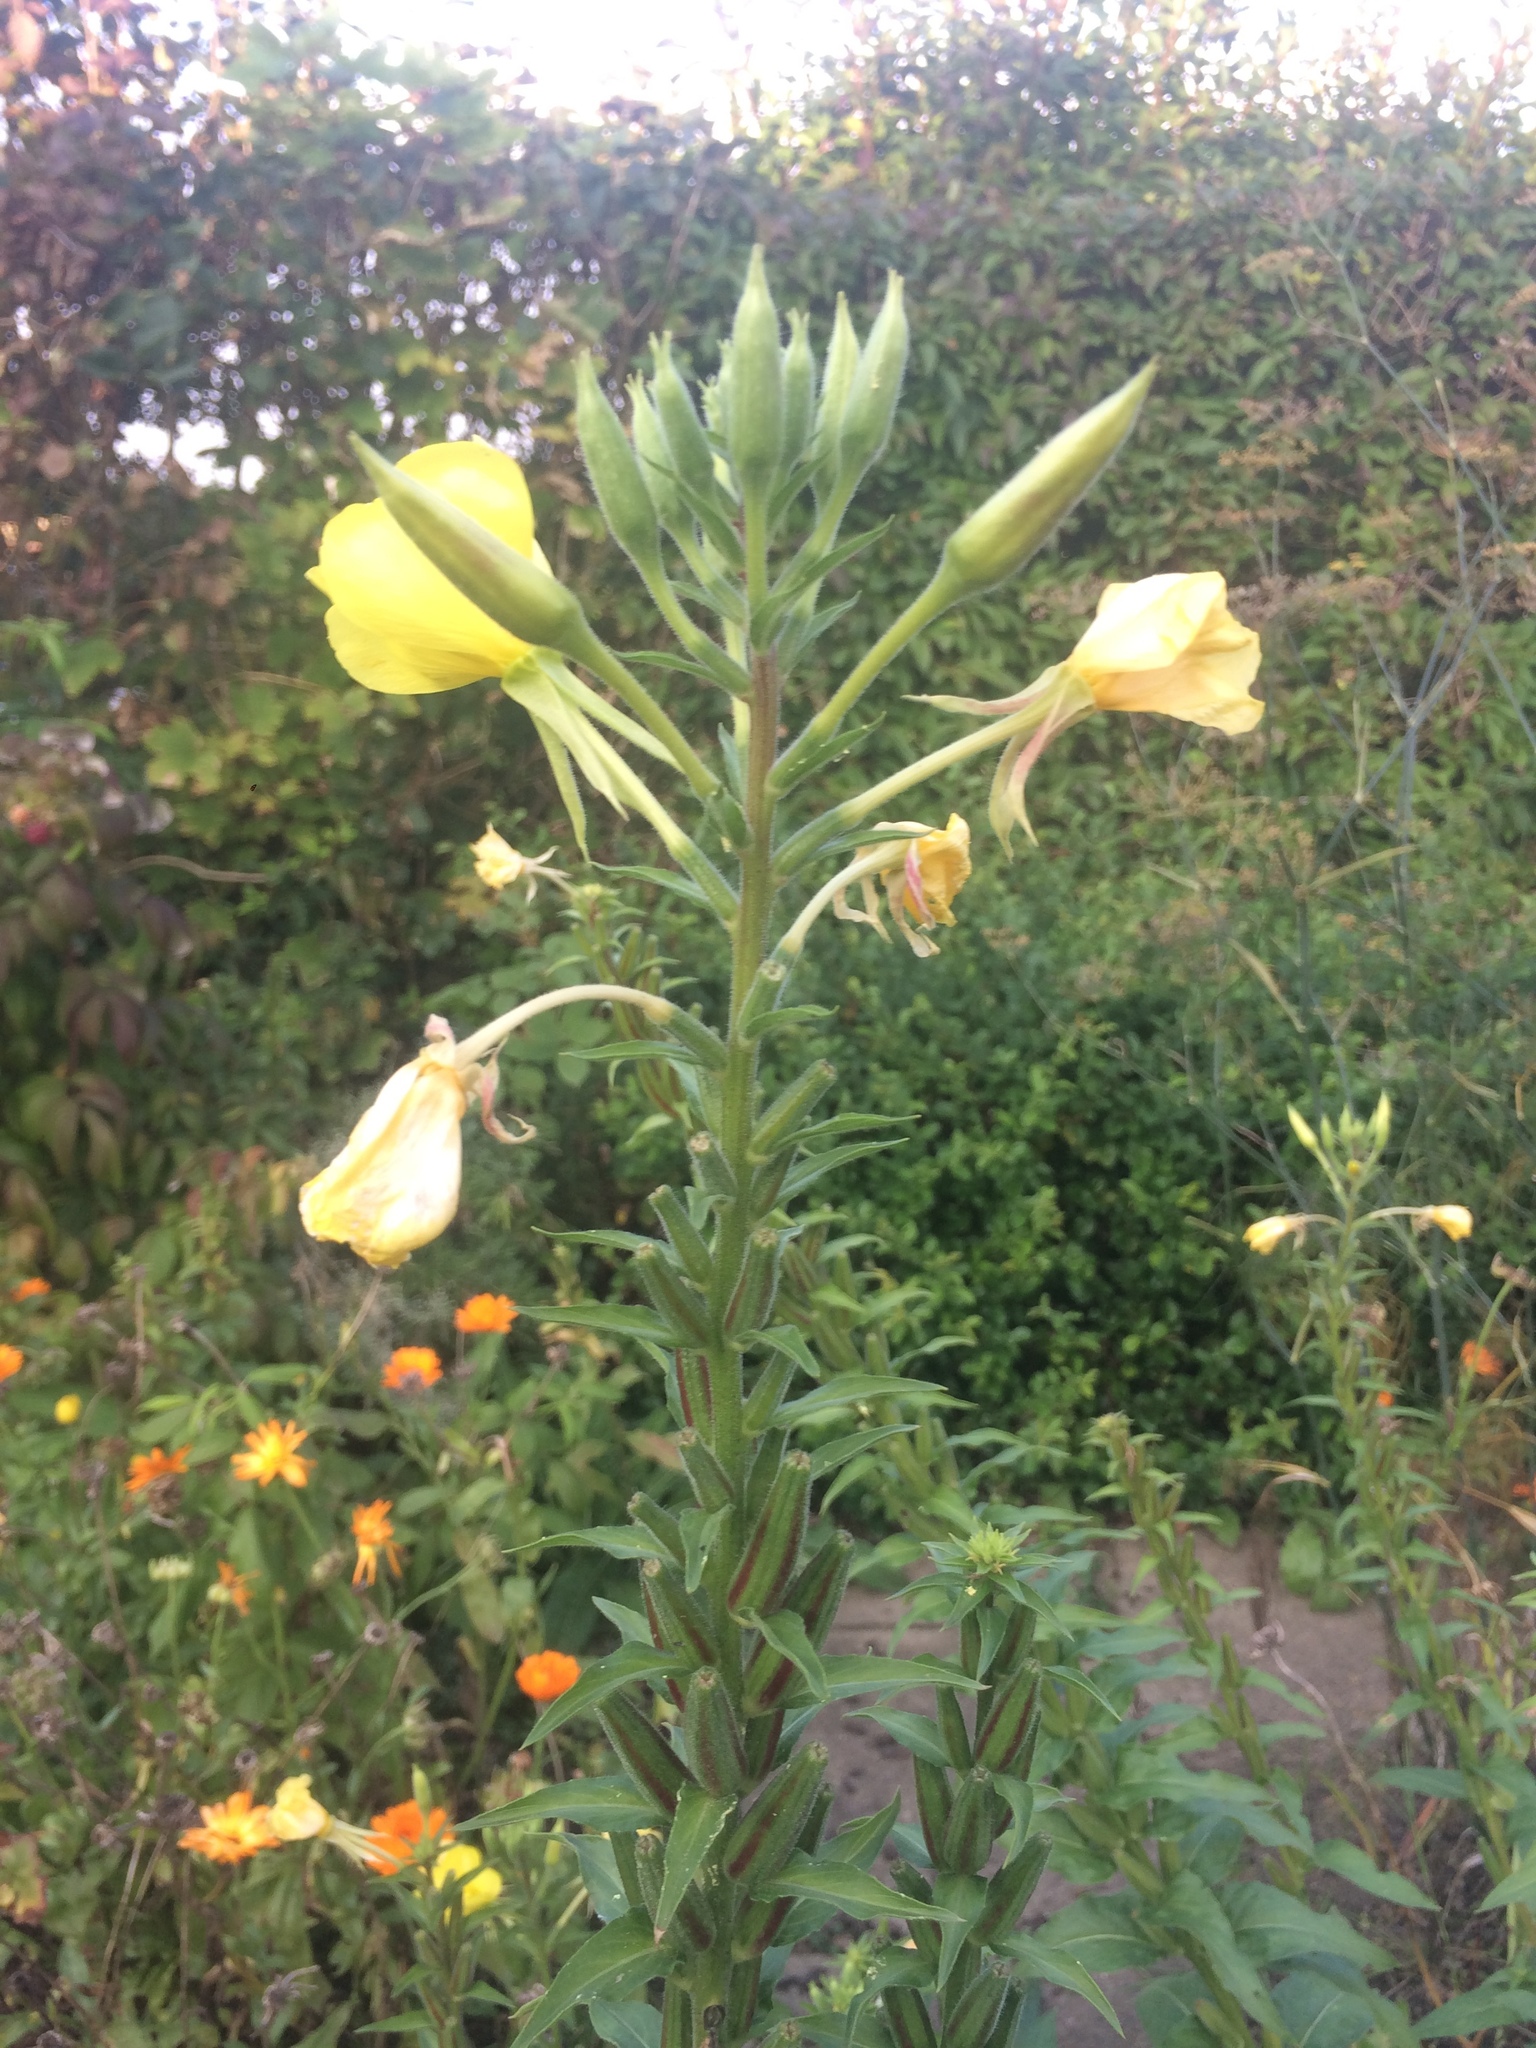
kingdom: Plantae
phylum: Tracheophyta
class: Magnoliopsida
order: Myrtales
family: Onagraceae
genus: Oenothera
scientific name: Oenothera biennis
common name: Common evening-primrose
